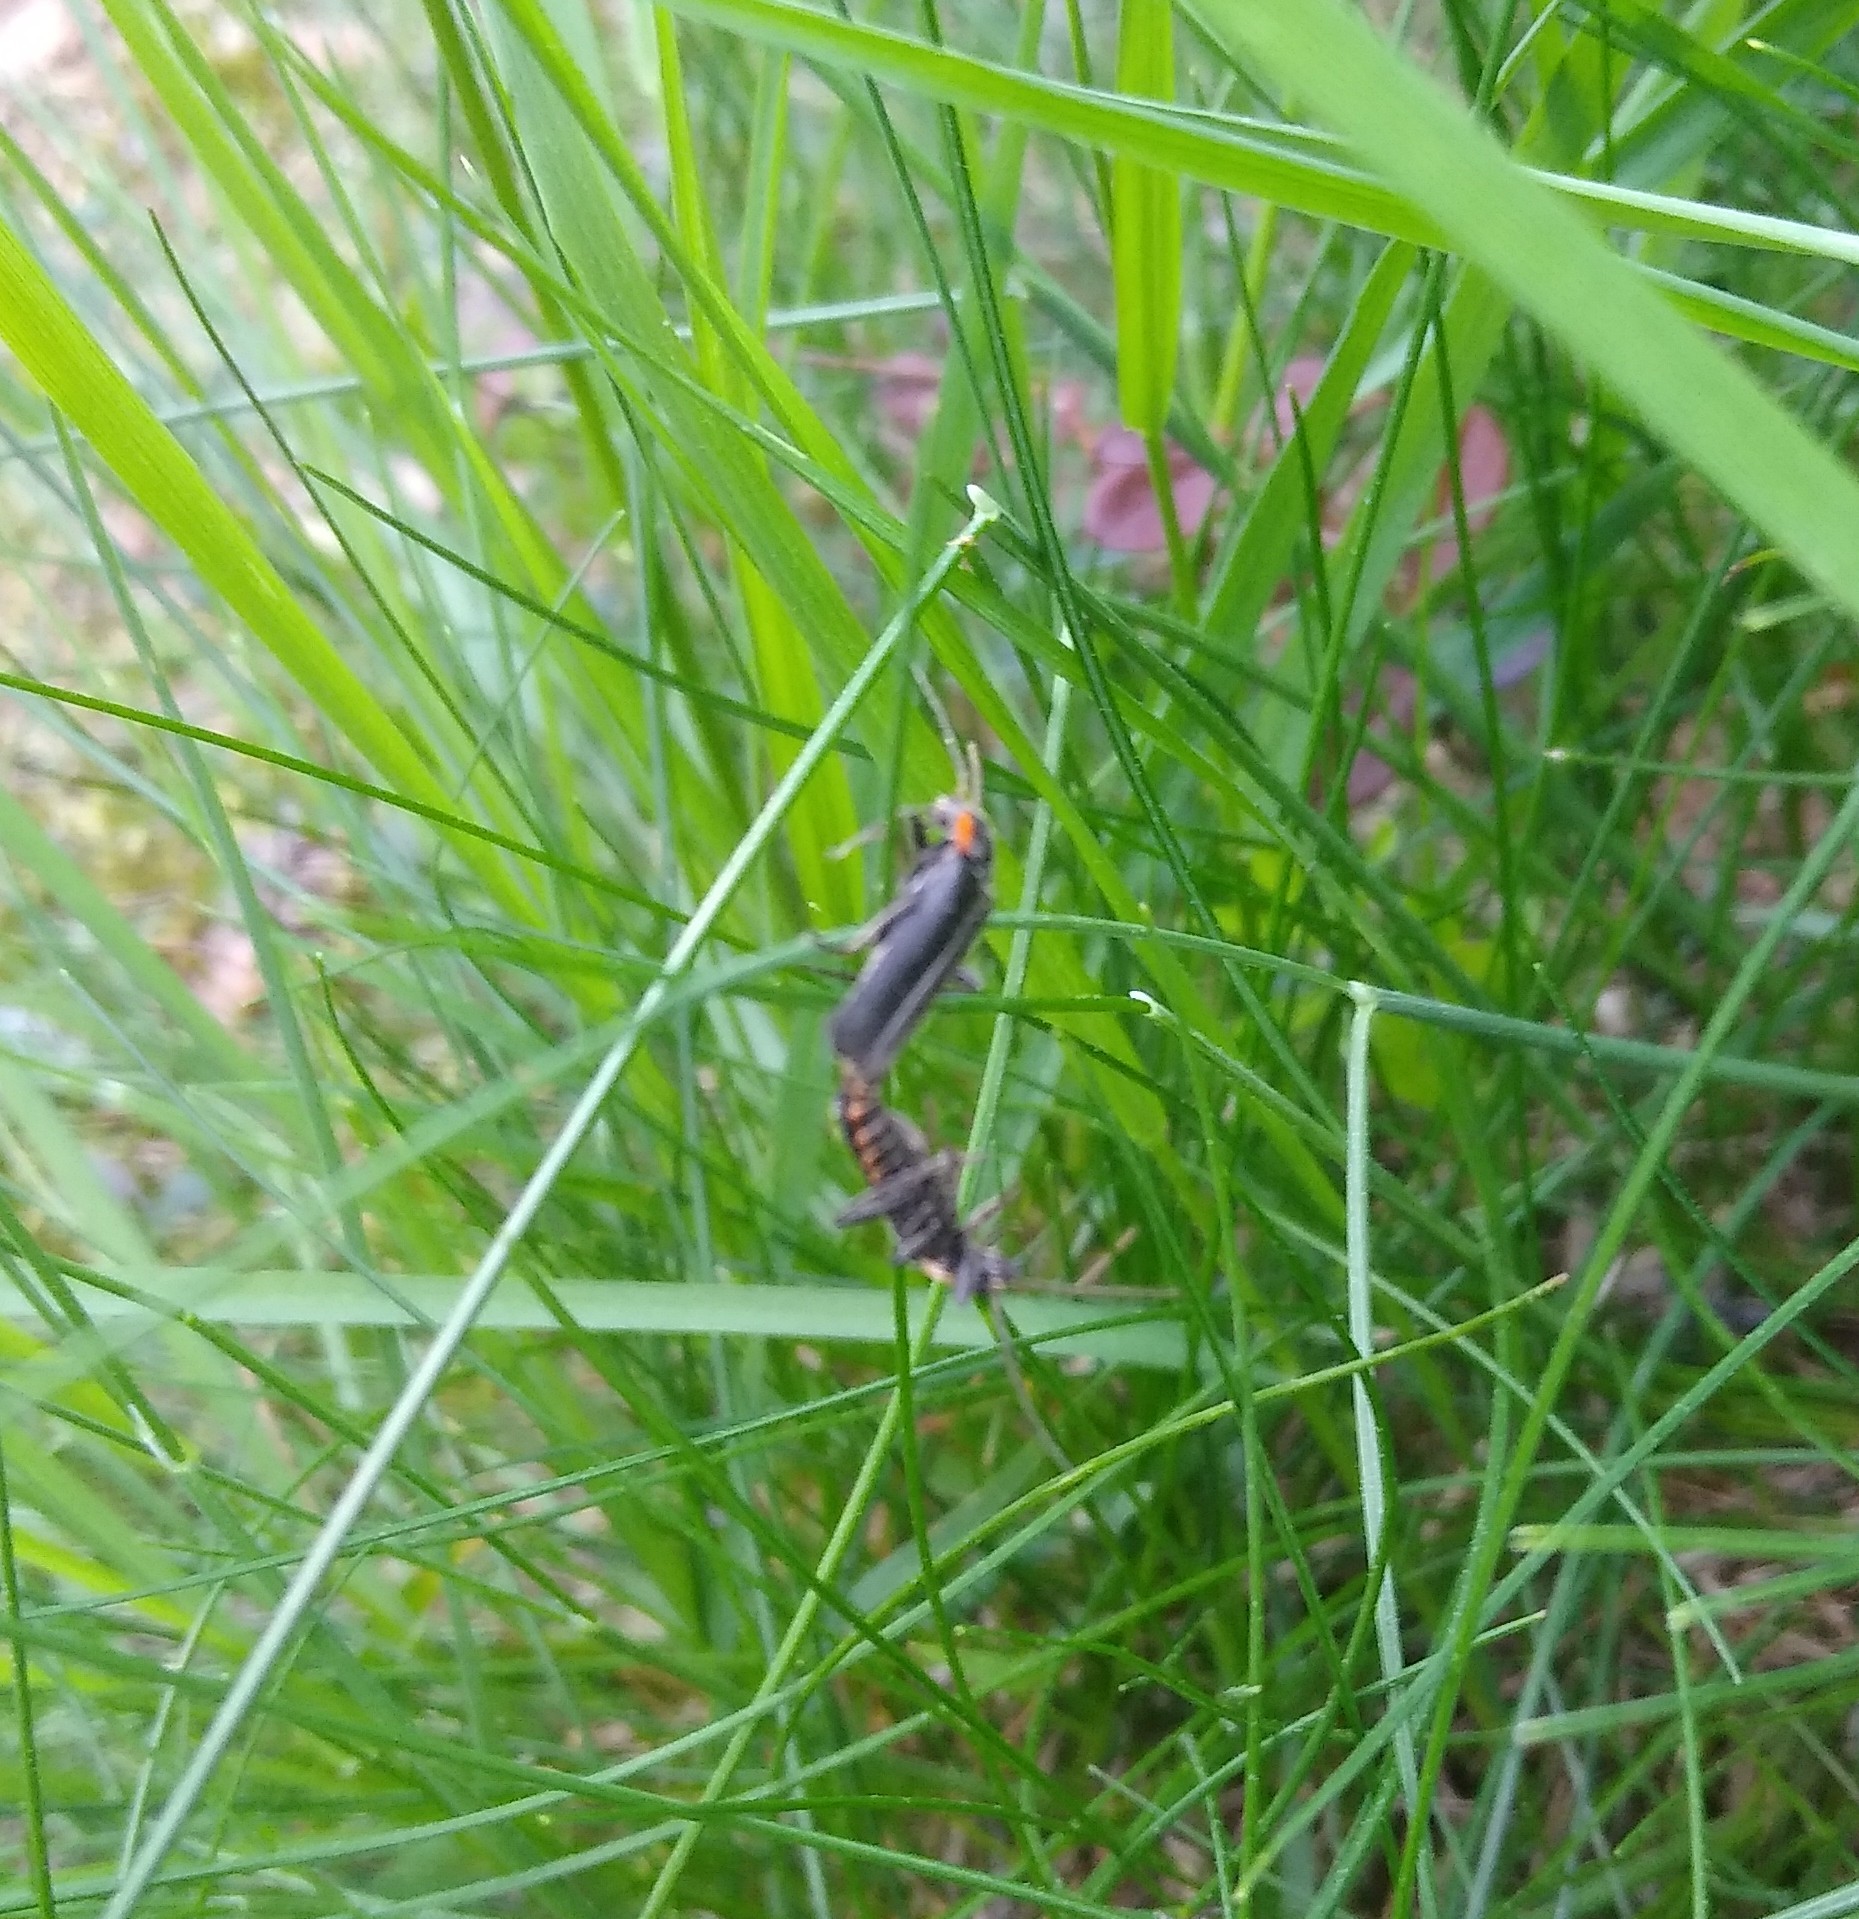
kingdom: Animalia
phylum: Arthropoda
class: Insecta
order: Coleoptera
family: Cantharidae
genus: Cantharis
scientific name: Cantharis obscura
